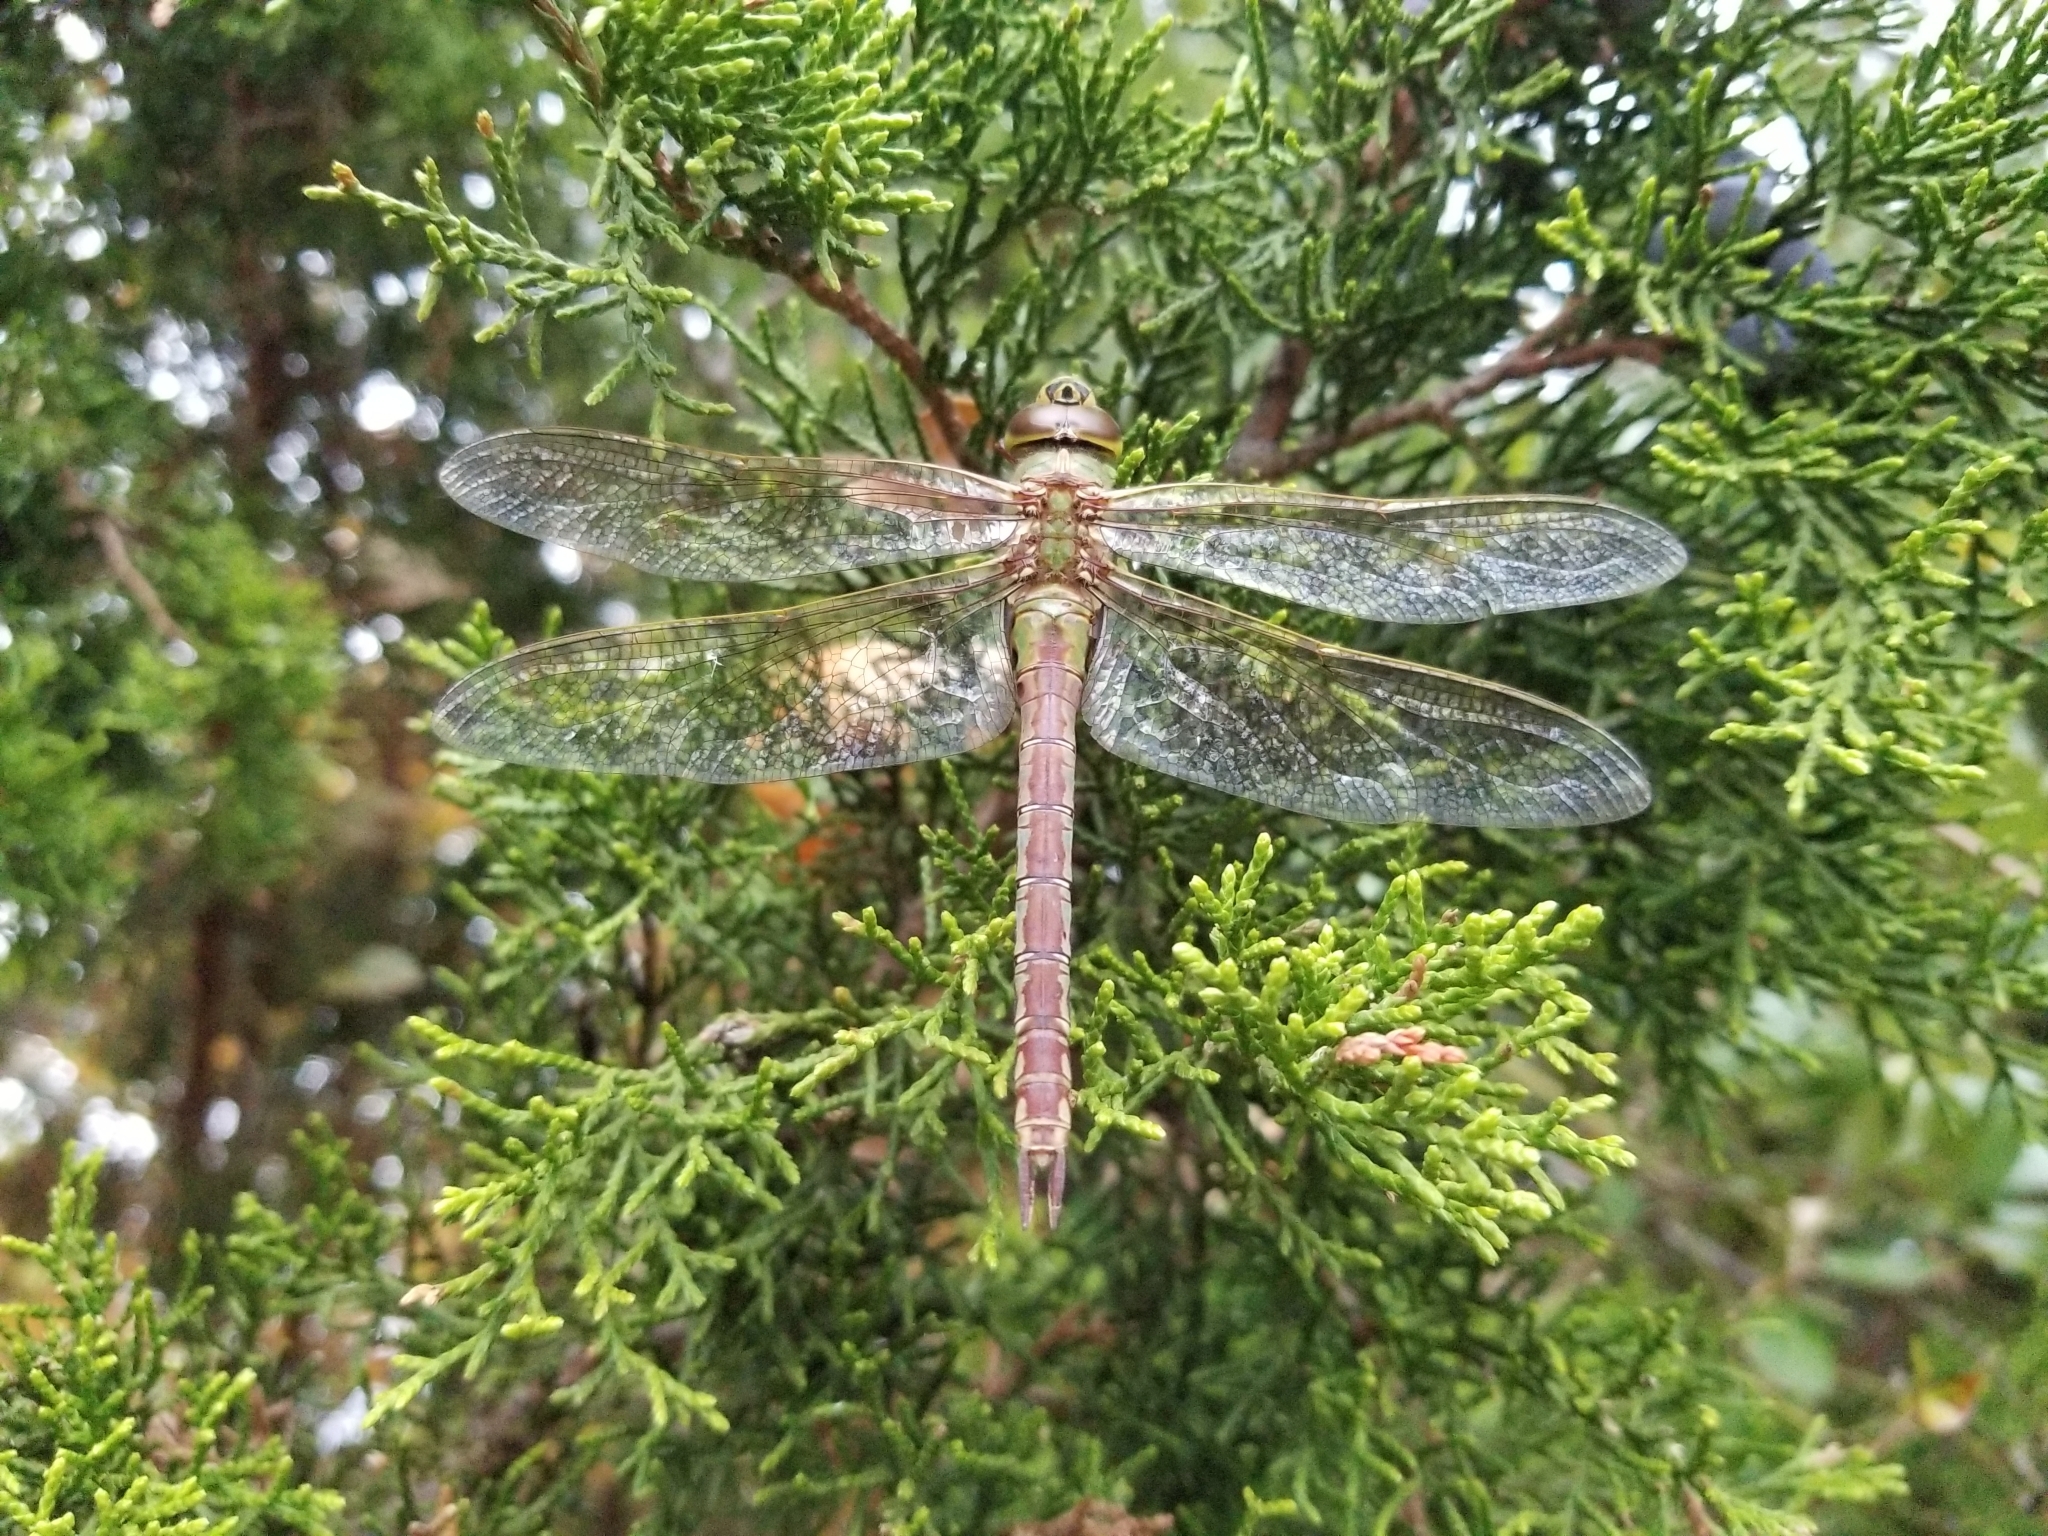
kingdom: Animalia
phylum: Arthropoda
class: Insecta
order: Odonata
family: Aeshnidae
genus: Anax
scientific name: Anax junius
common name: Common green darner
